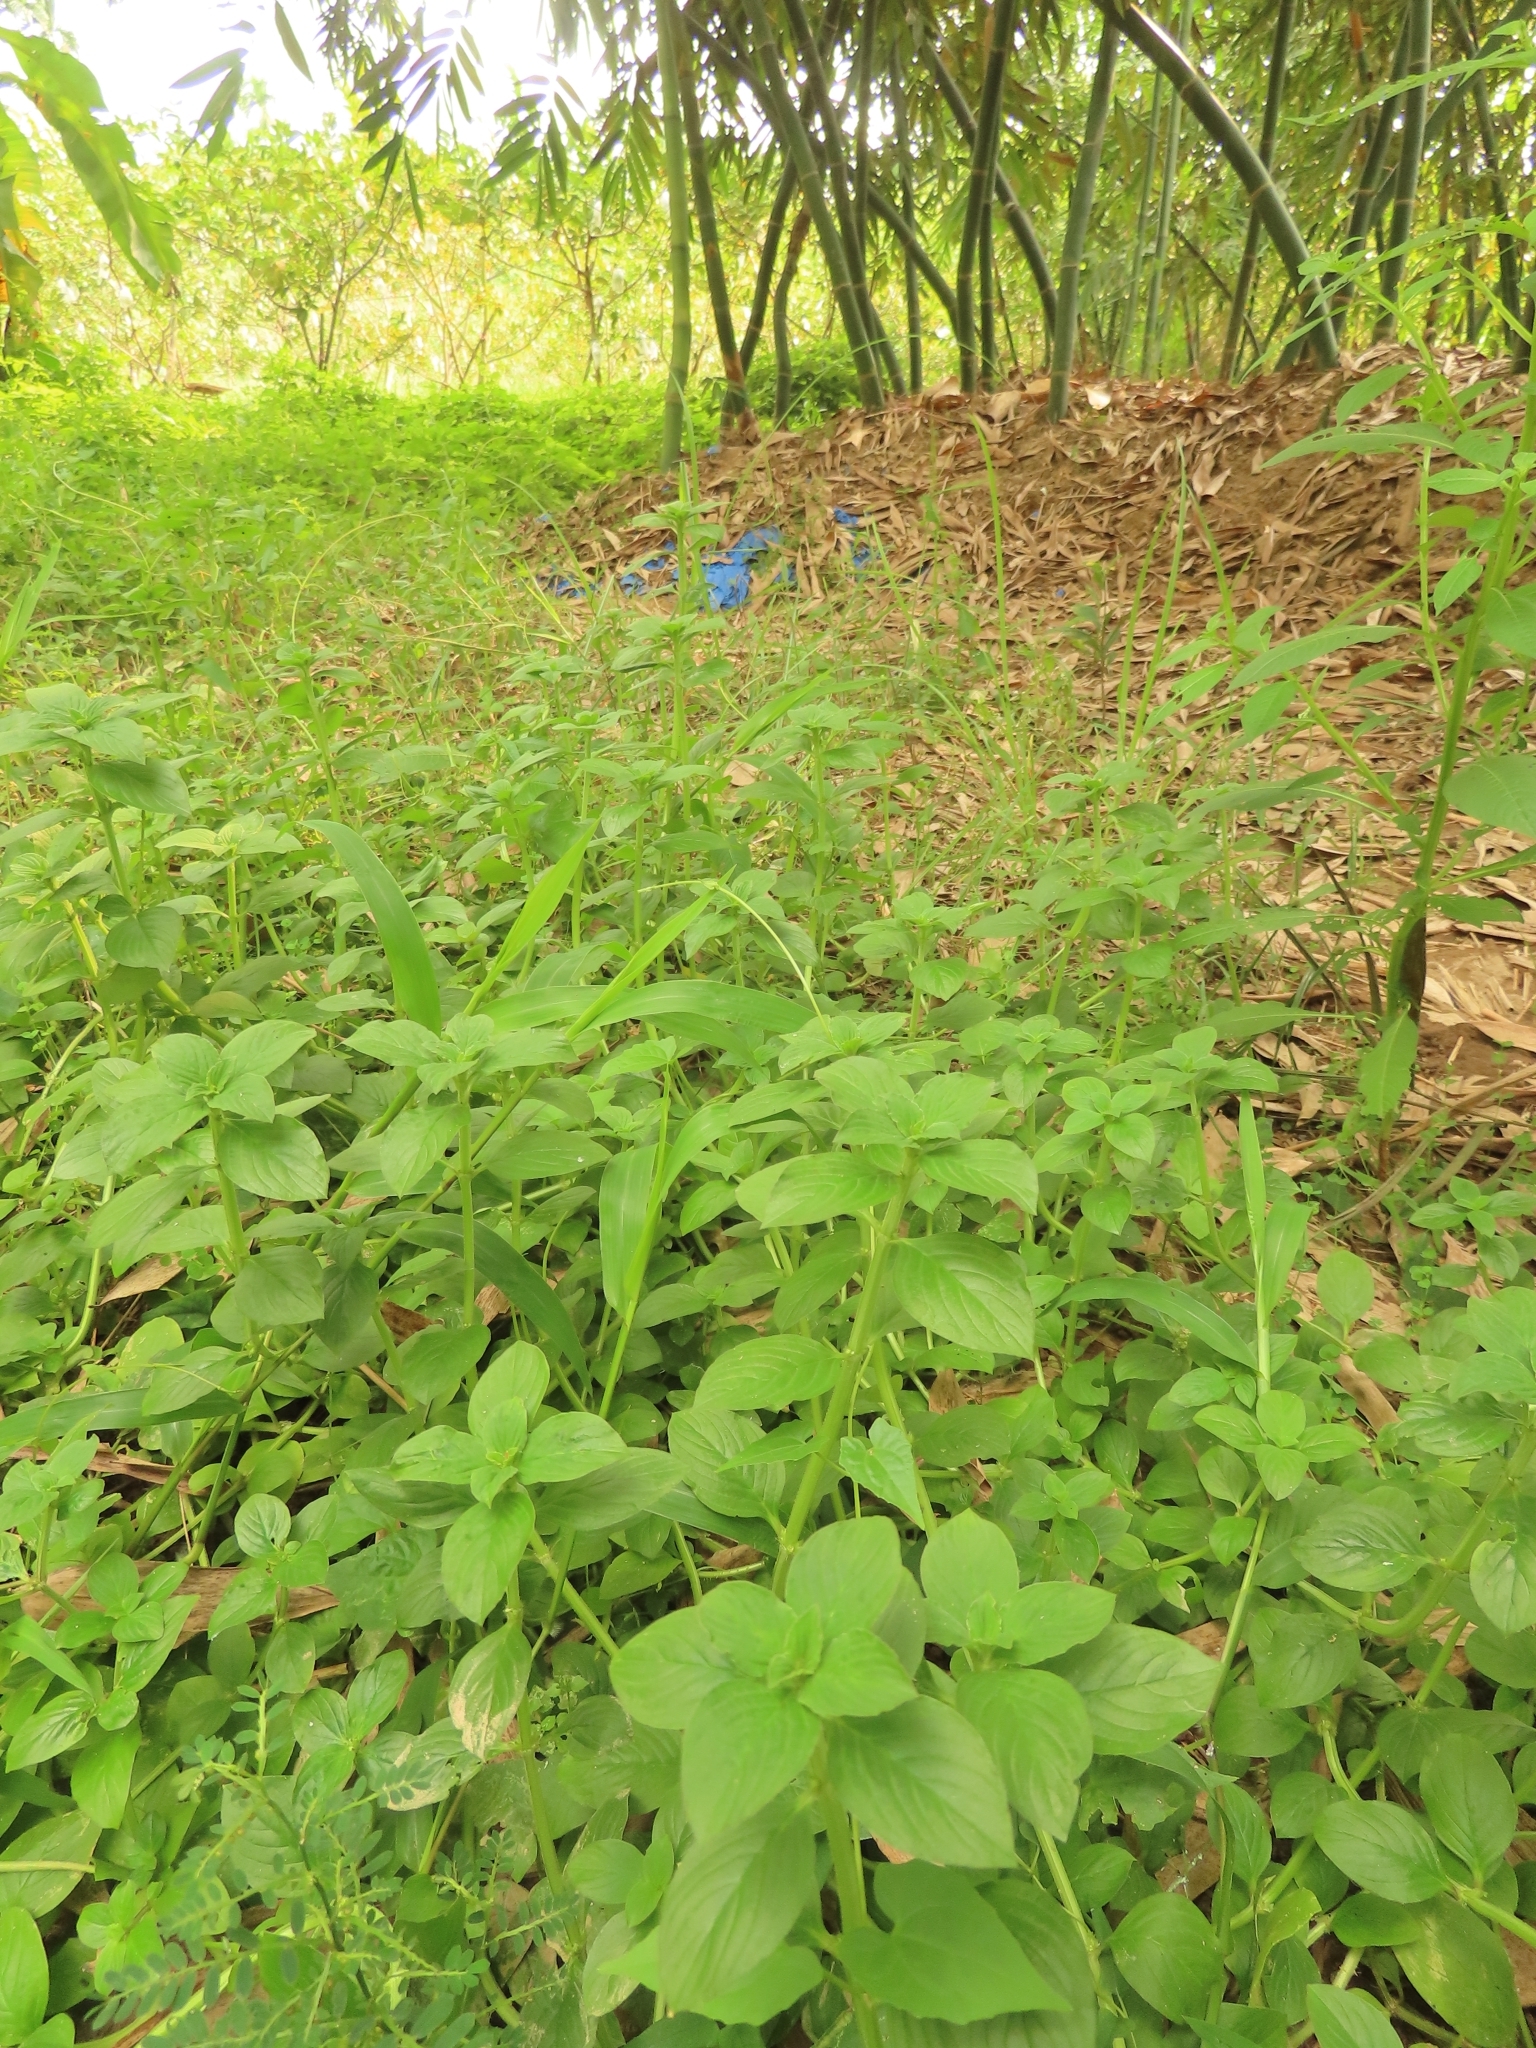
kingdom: Plantae
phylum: Tracheophyta
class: Magnoliopsida
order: Gentianales
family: Rubiaceae
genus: Spermacoce
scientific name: Spermacoce latifolia
